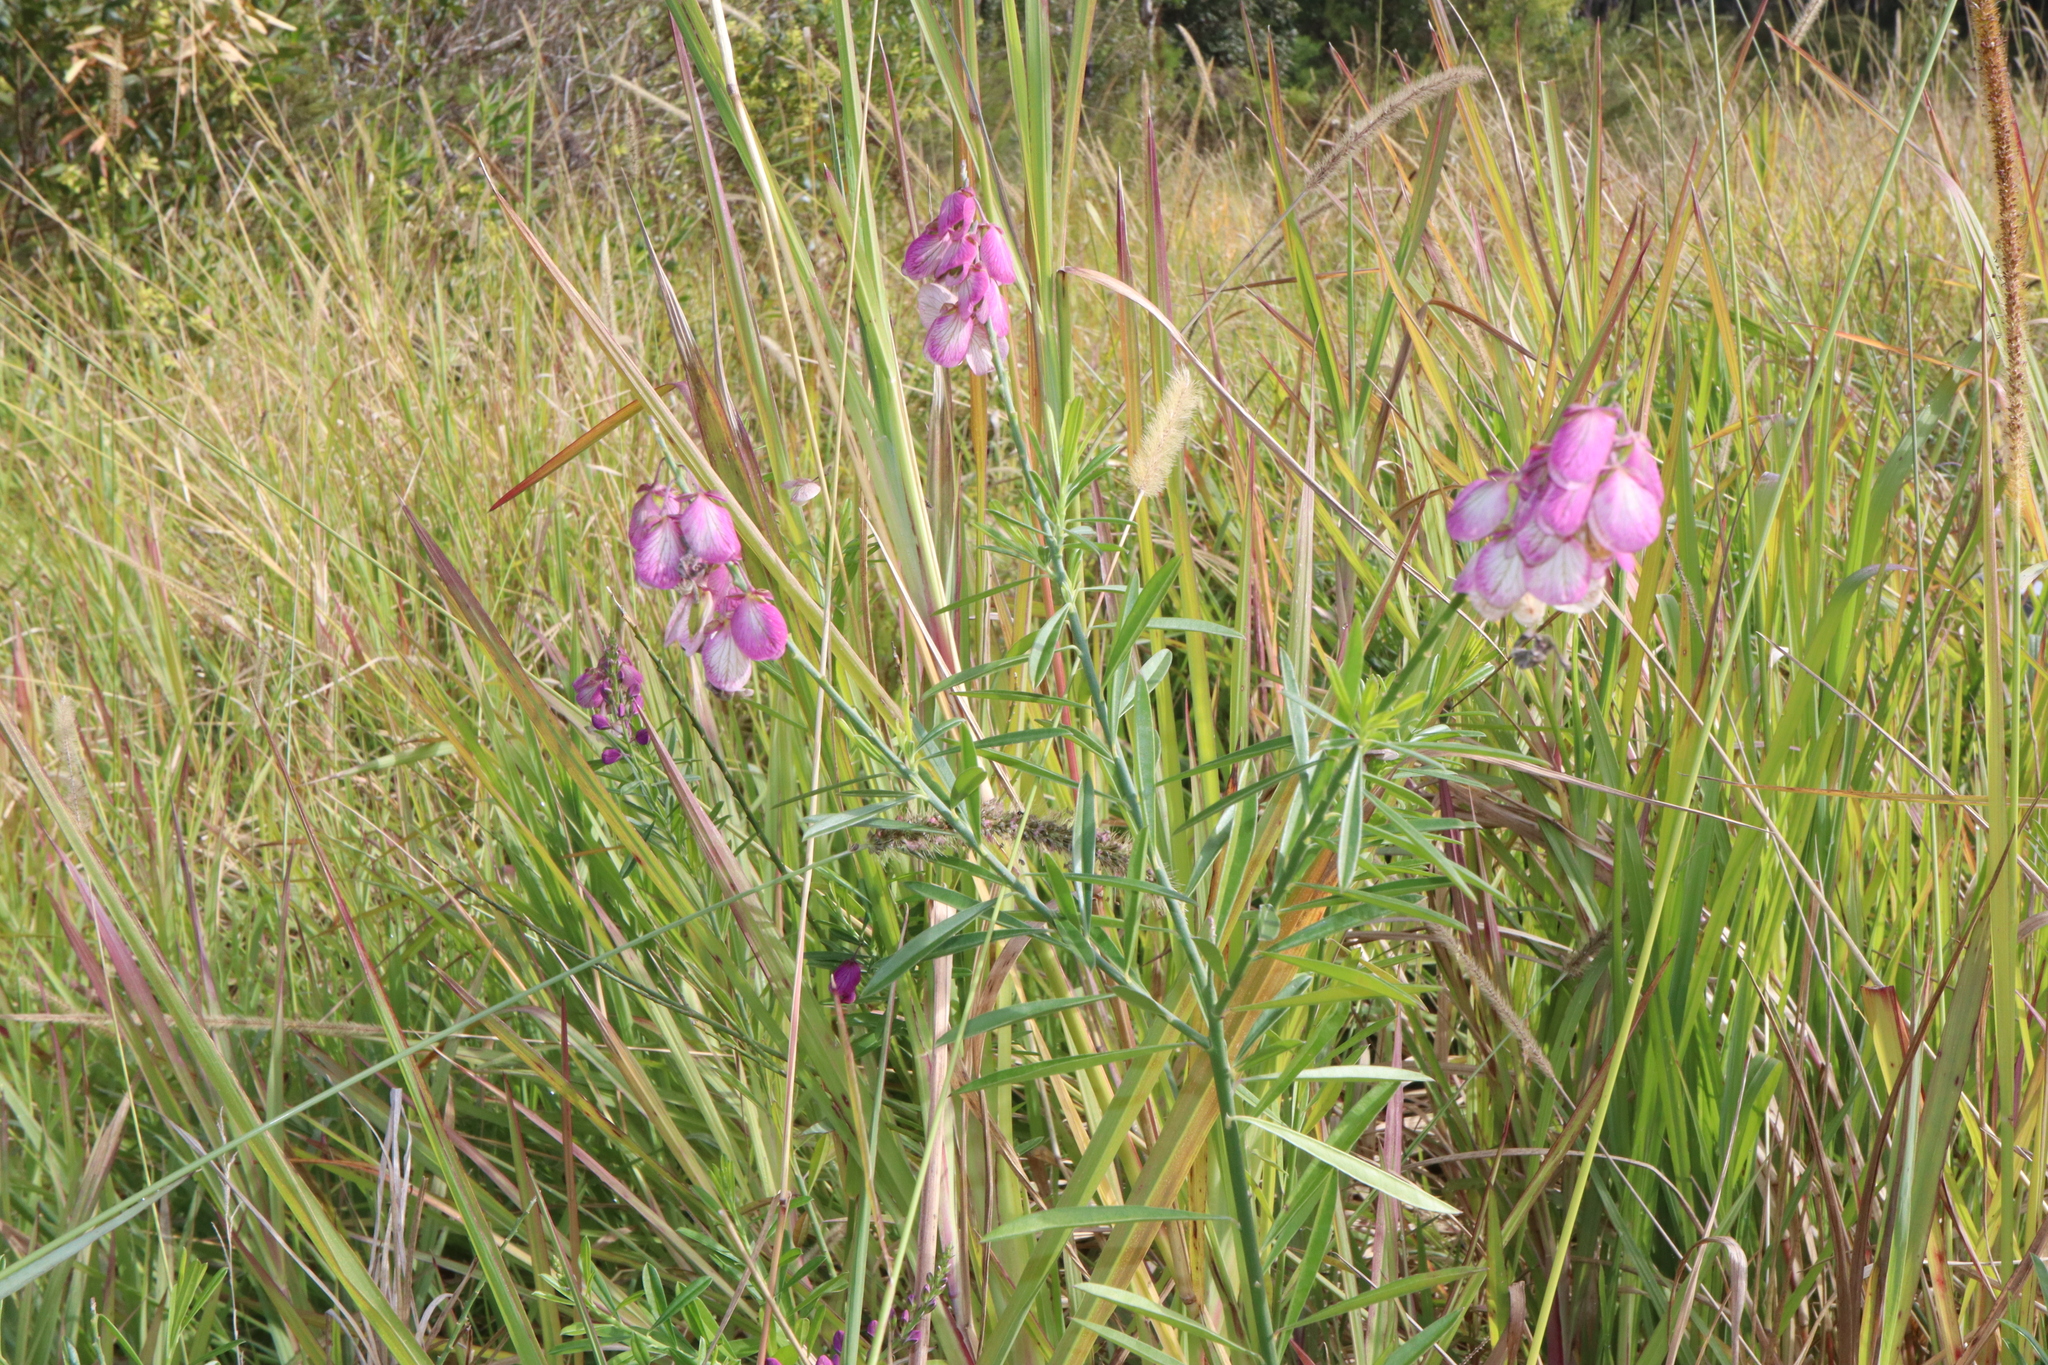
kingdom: Plantae
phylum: Tracheophyta
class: Magnoliopsida
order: Fabales
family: Polygalaceae
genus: Polygala
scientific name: Polygala virgata
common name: Milkwort
